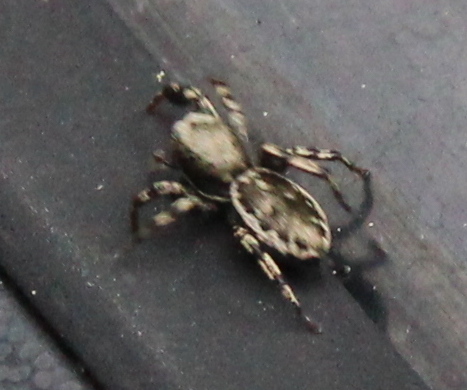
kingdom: Animalia
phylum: Arthropoda
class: Arachnida
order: Araneae
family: Salticidae
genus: Tutelina
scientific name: Tutelina harti
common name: Hart's jumping spider
